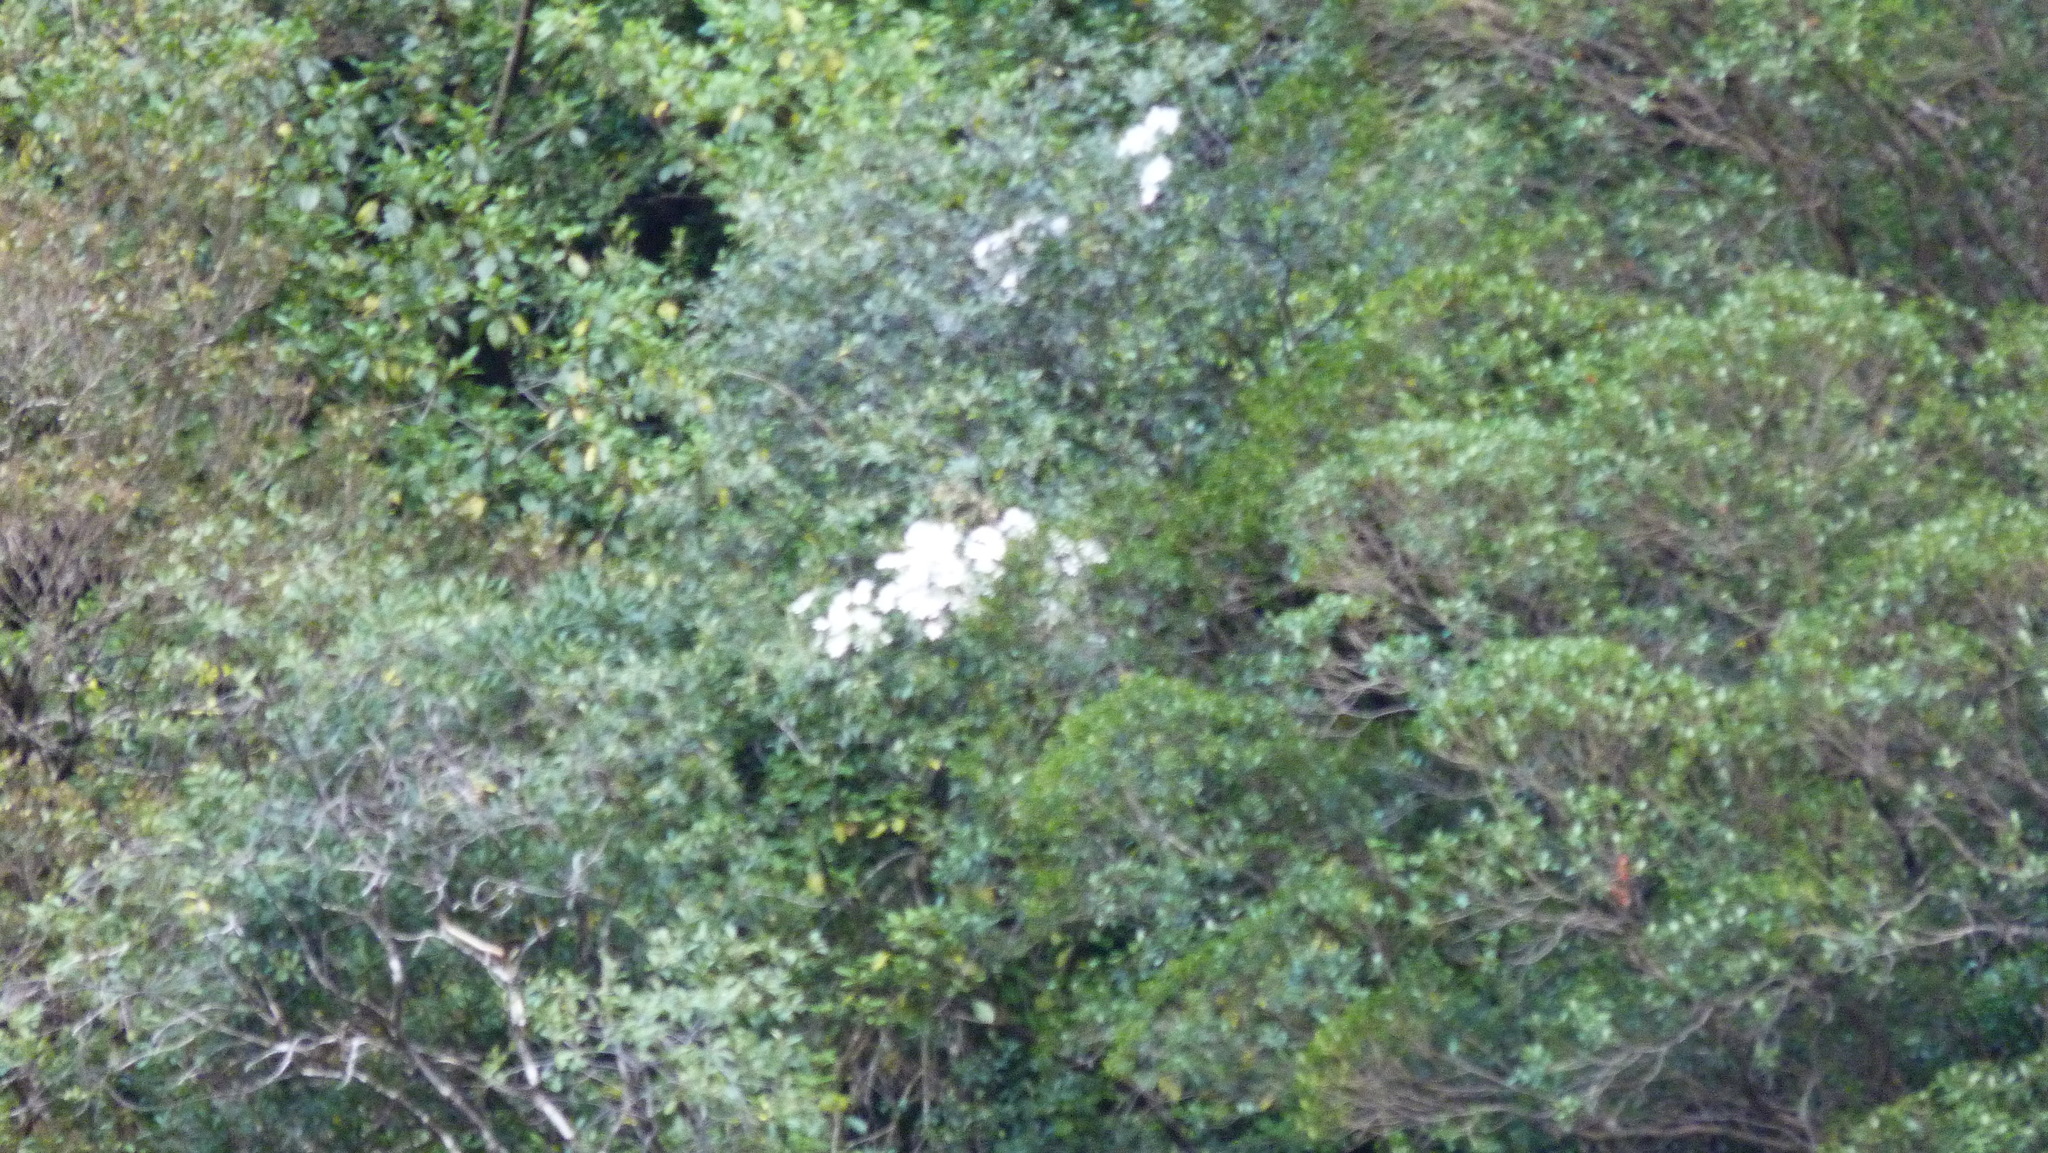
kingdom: Plantae
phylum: Tracheophyta
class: Magnoliopsida
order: Ranunculales
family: Ranunculaceae
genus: Clematis
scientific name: Clematis paniculata
